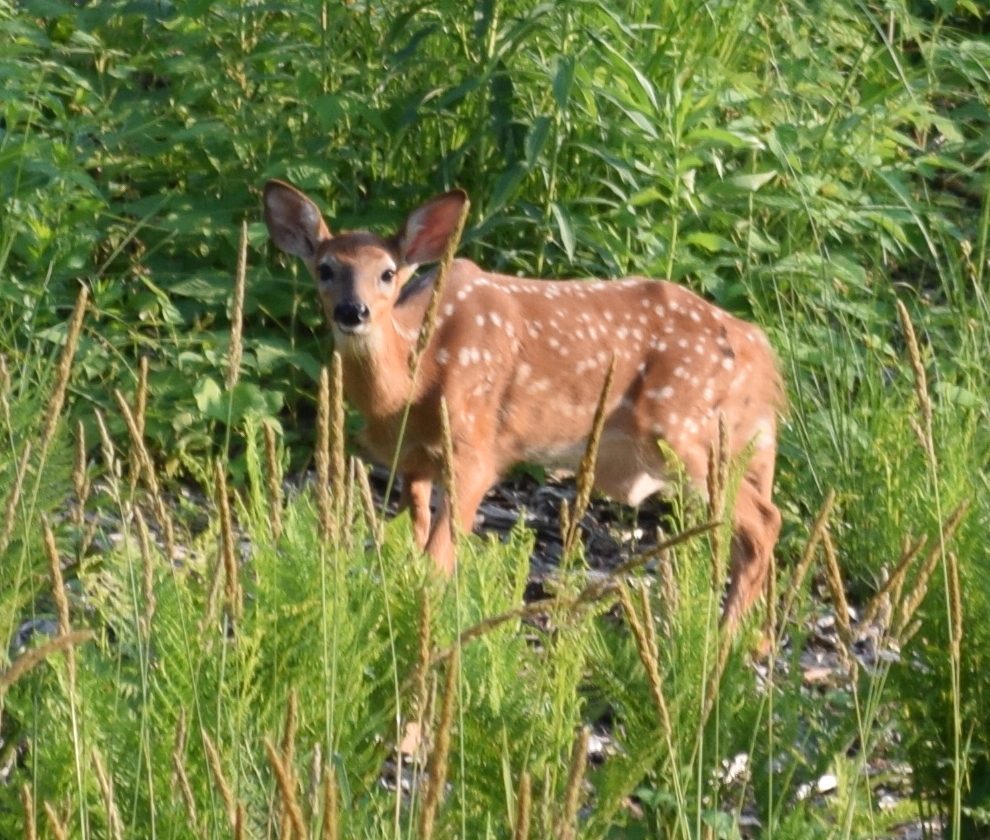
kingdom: Animalia
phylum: Chordata
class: Mammalia
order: Artiodactyla
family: Cervidae
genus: Odocoileus
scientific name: Odocoileus virginianus
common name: White-tailed deer
